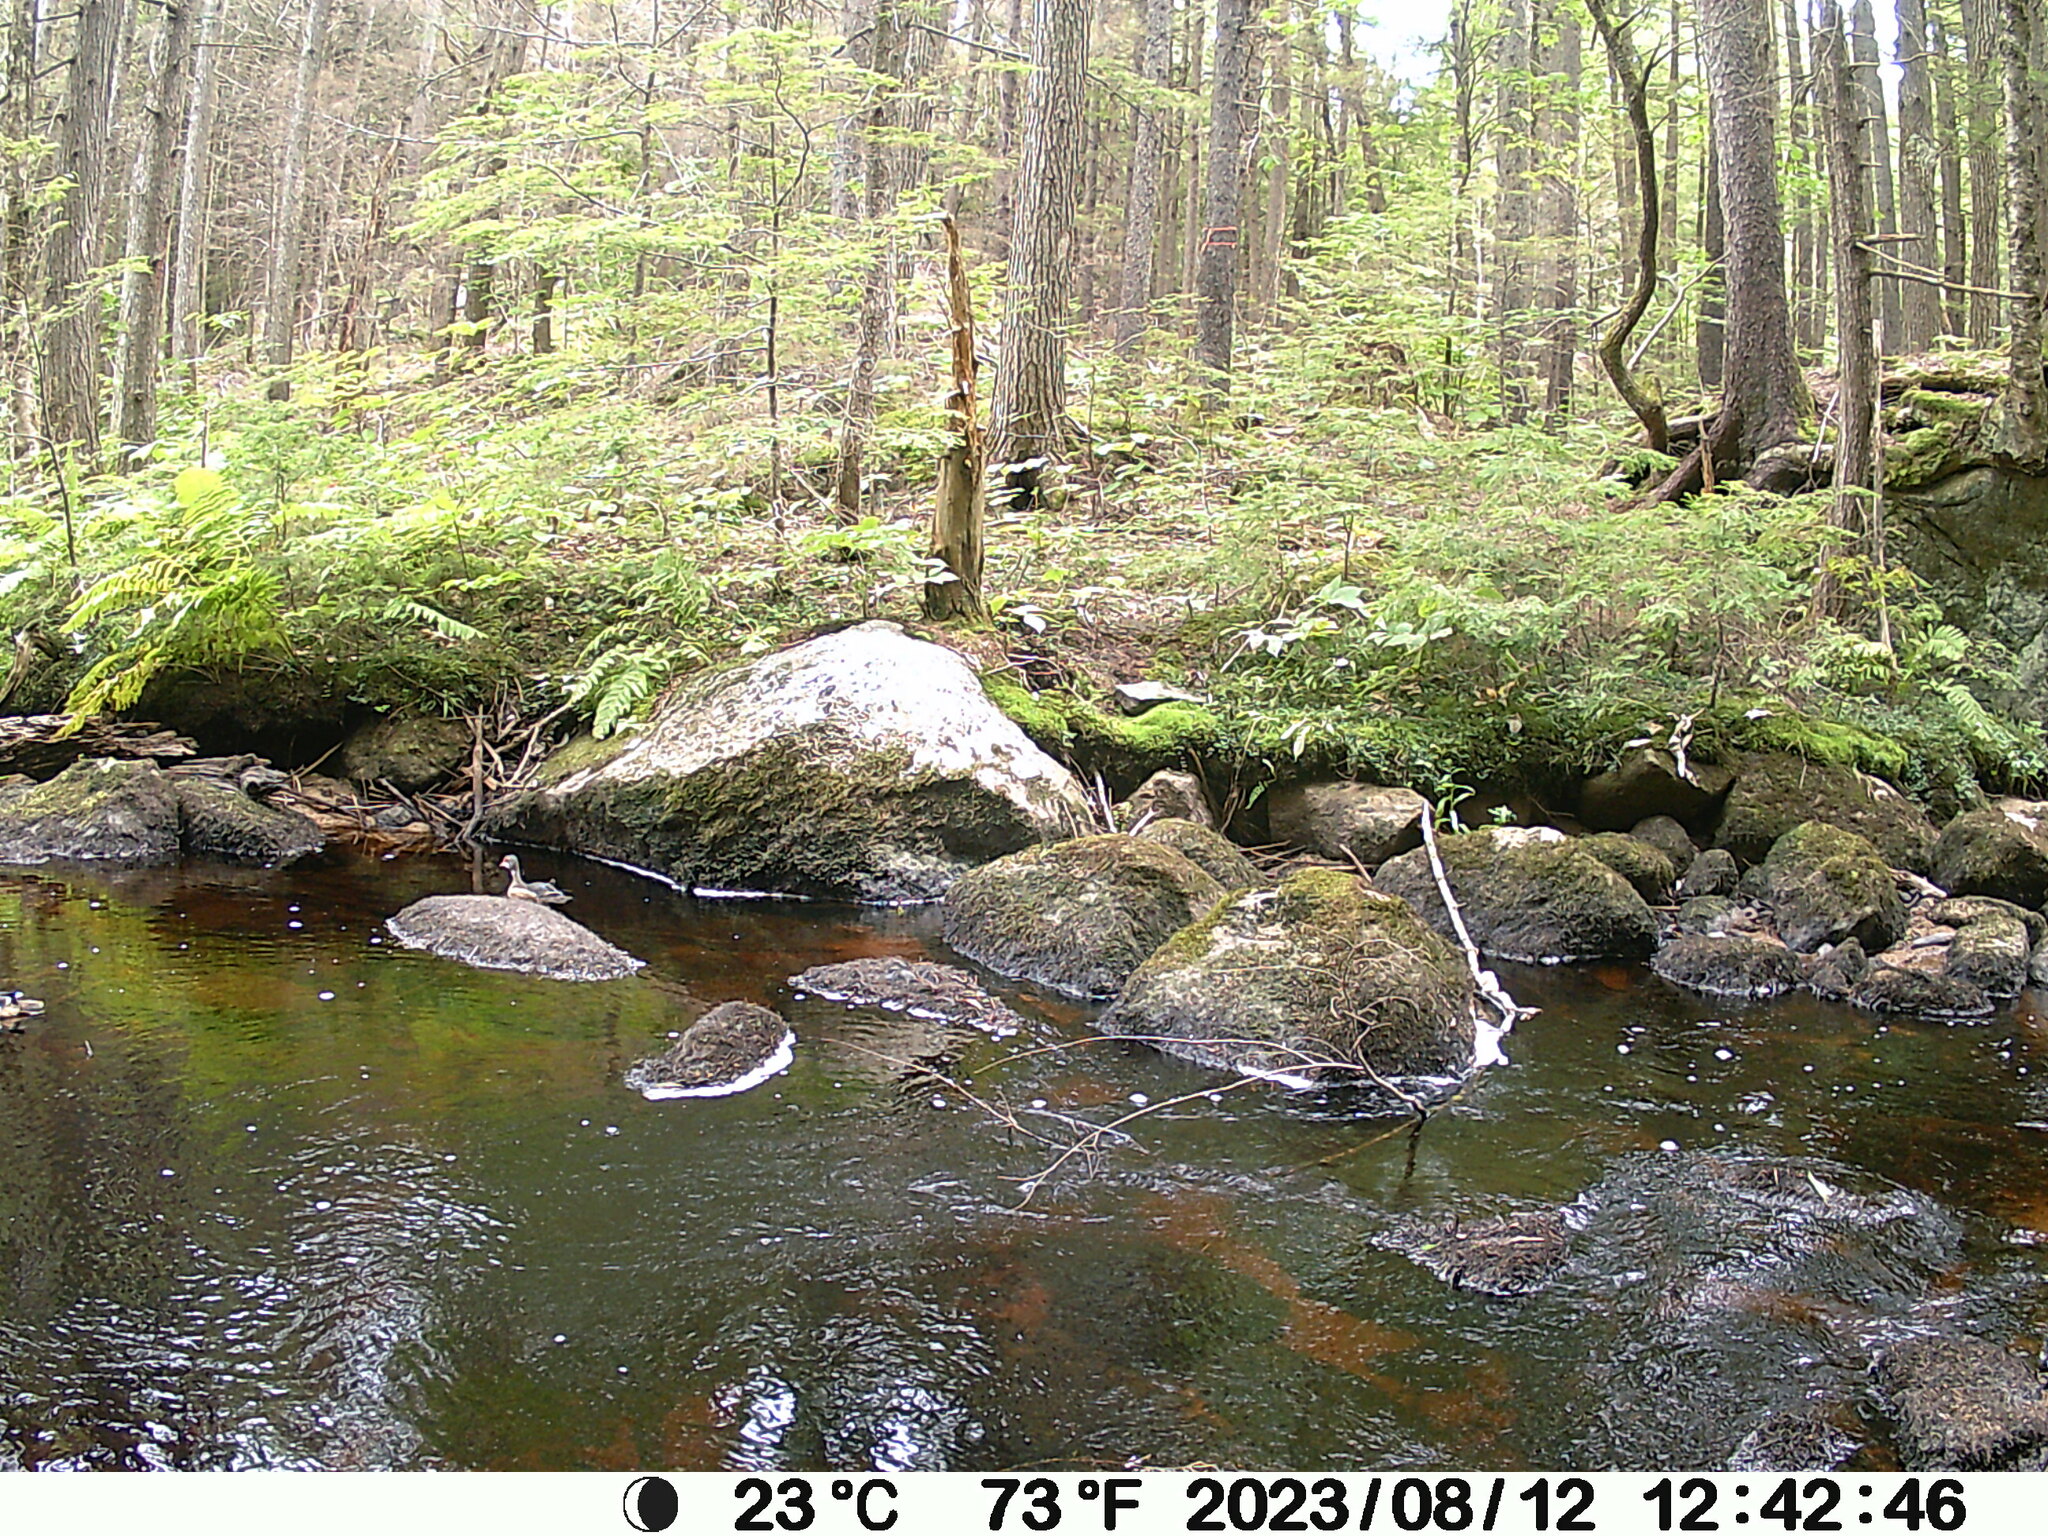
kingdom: Animalia
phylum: Chordata
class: Aves
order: Anseriformes
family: Anatidae
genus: Aix
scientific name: Aix sponsa
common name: Wood duck
